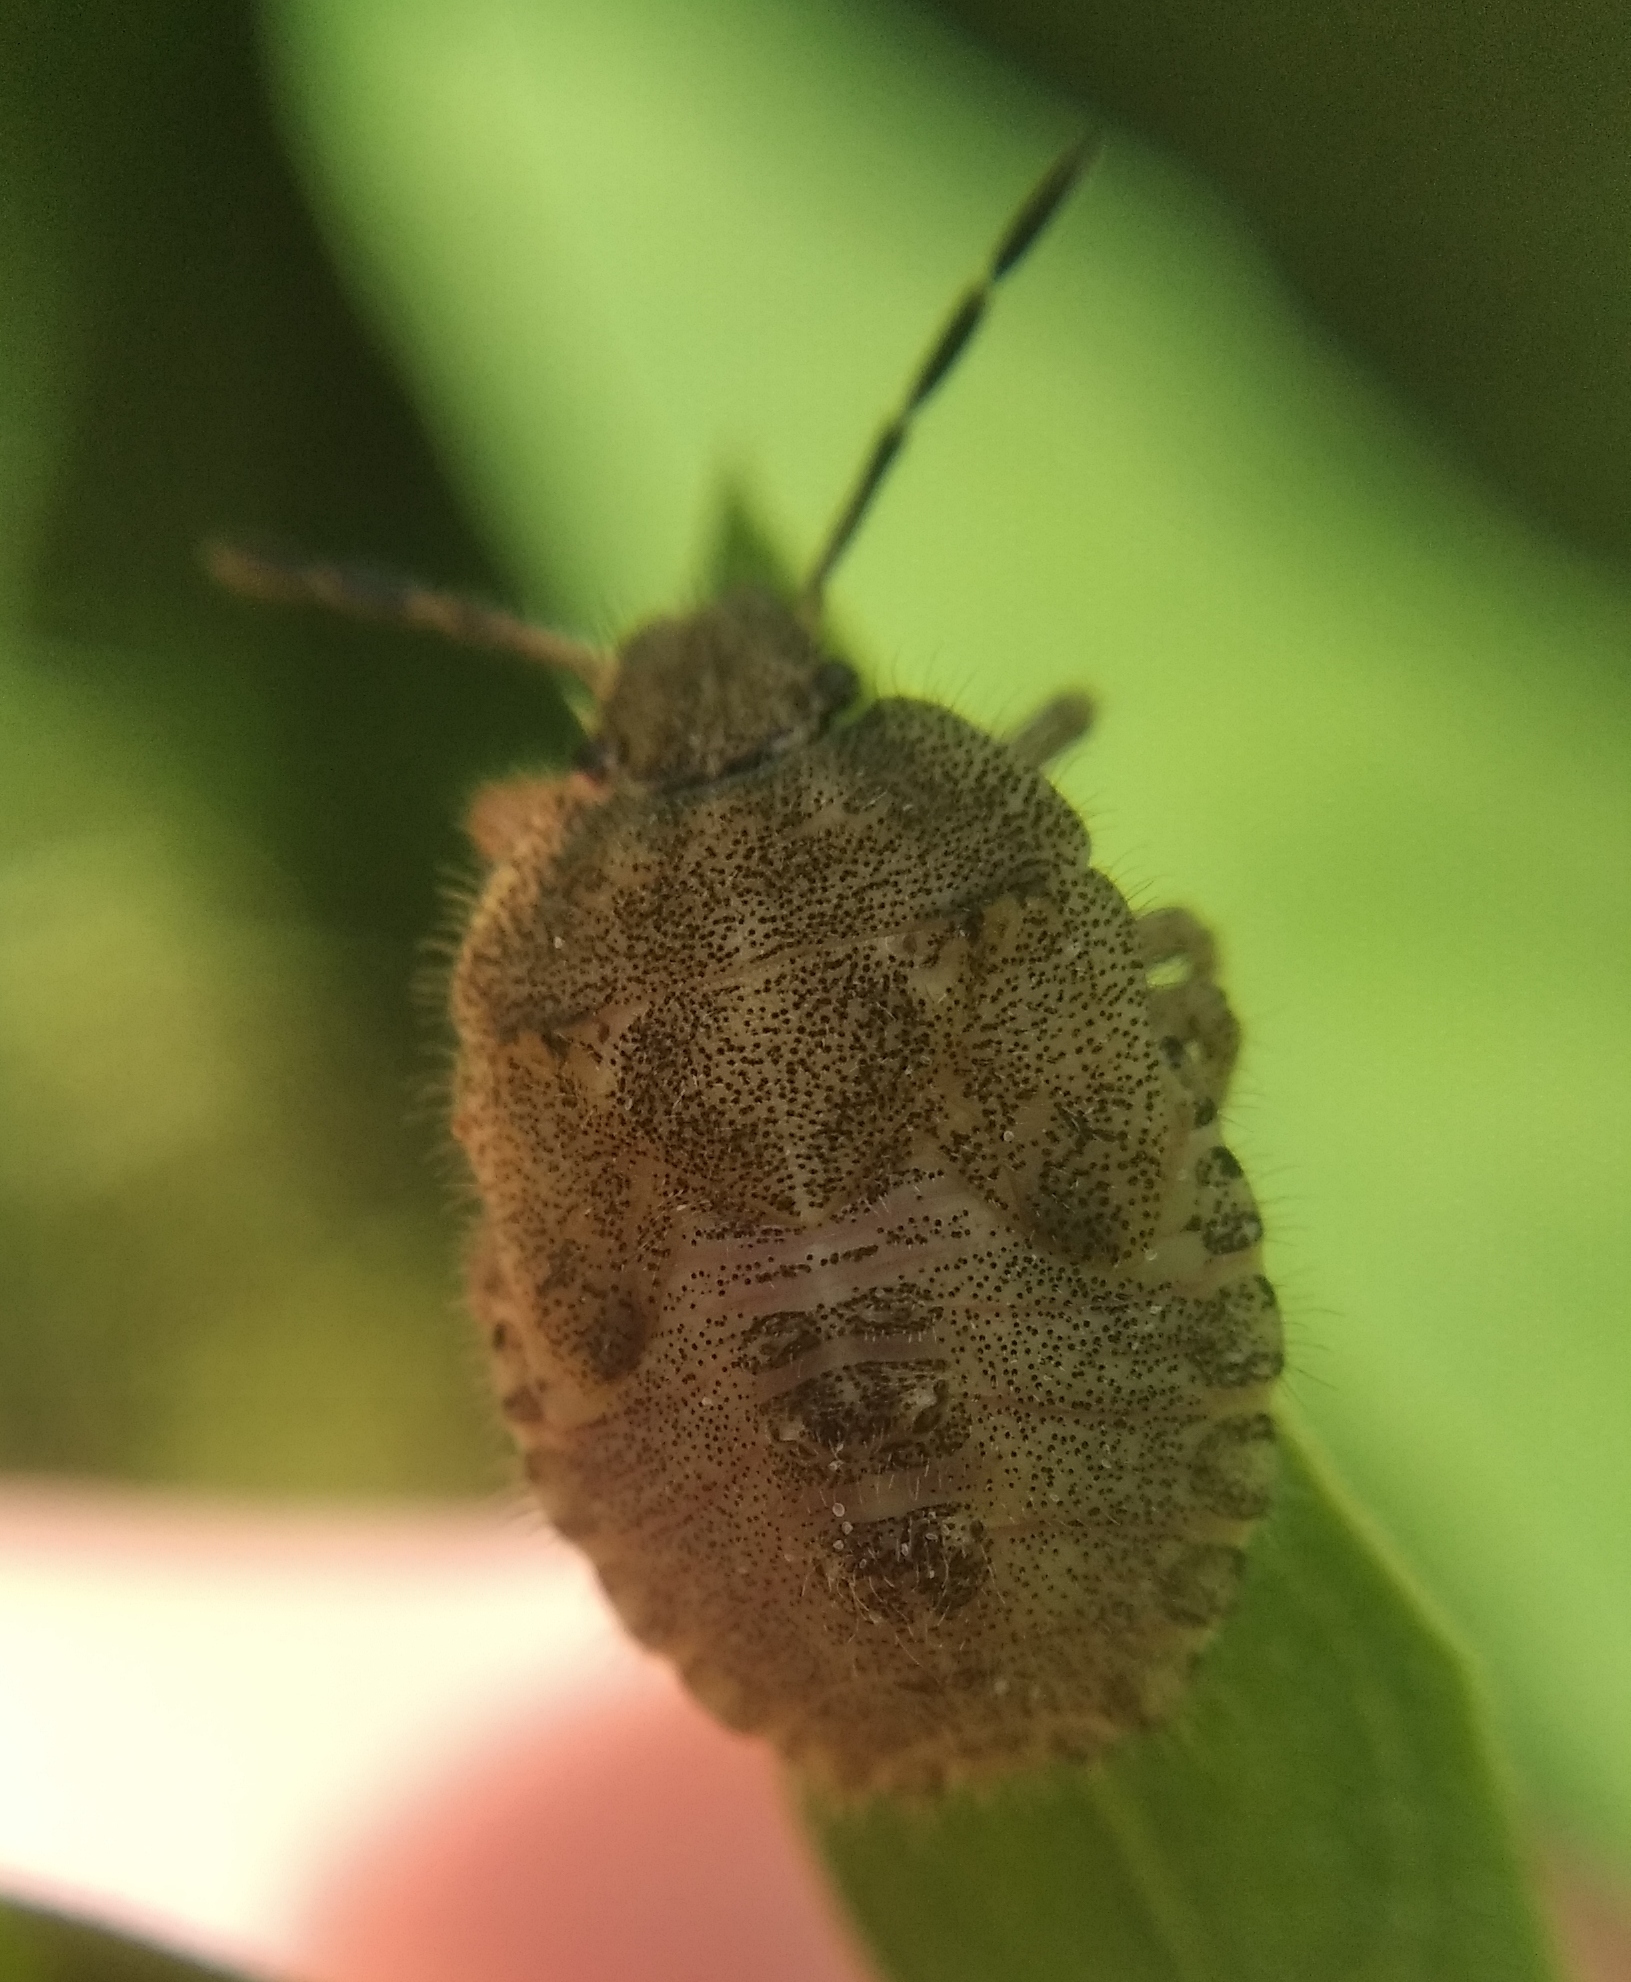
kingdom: Animalia
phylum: Arthropoda
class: Insecta
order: Hemiptera
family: Pentatomidae
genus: Dolycoris
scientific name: Dolycoris baccarum
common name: Sloe bug
